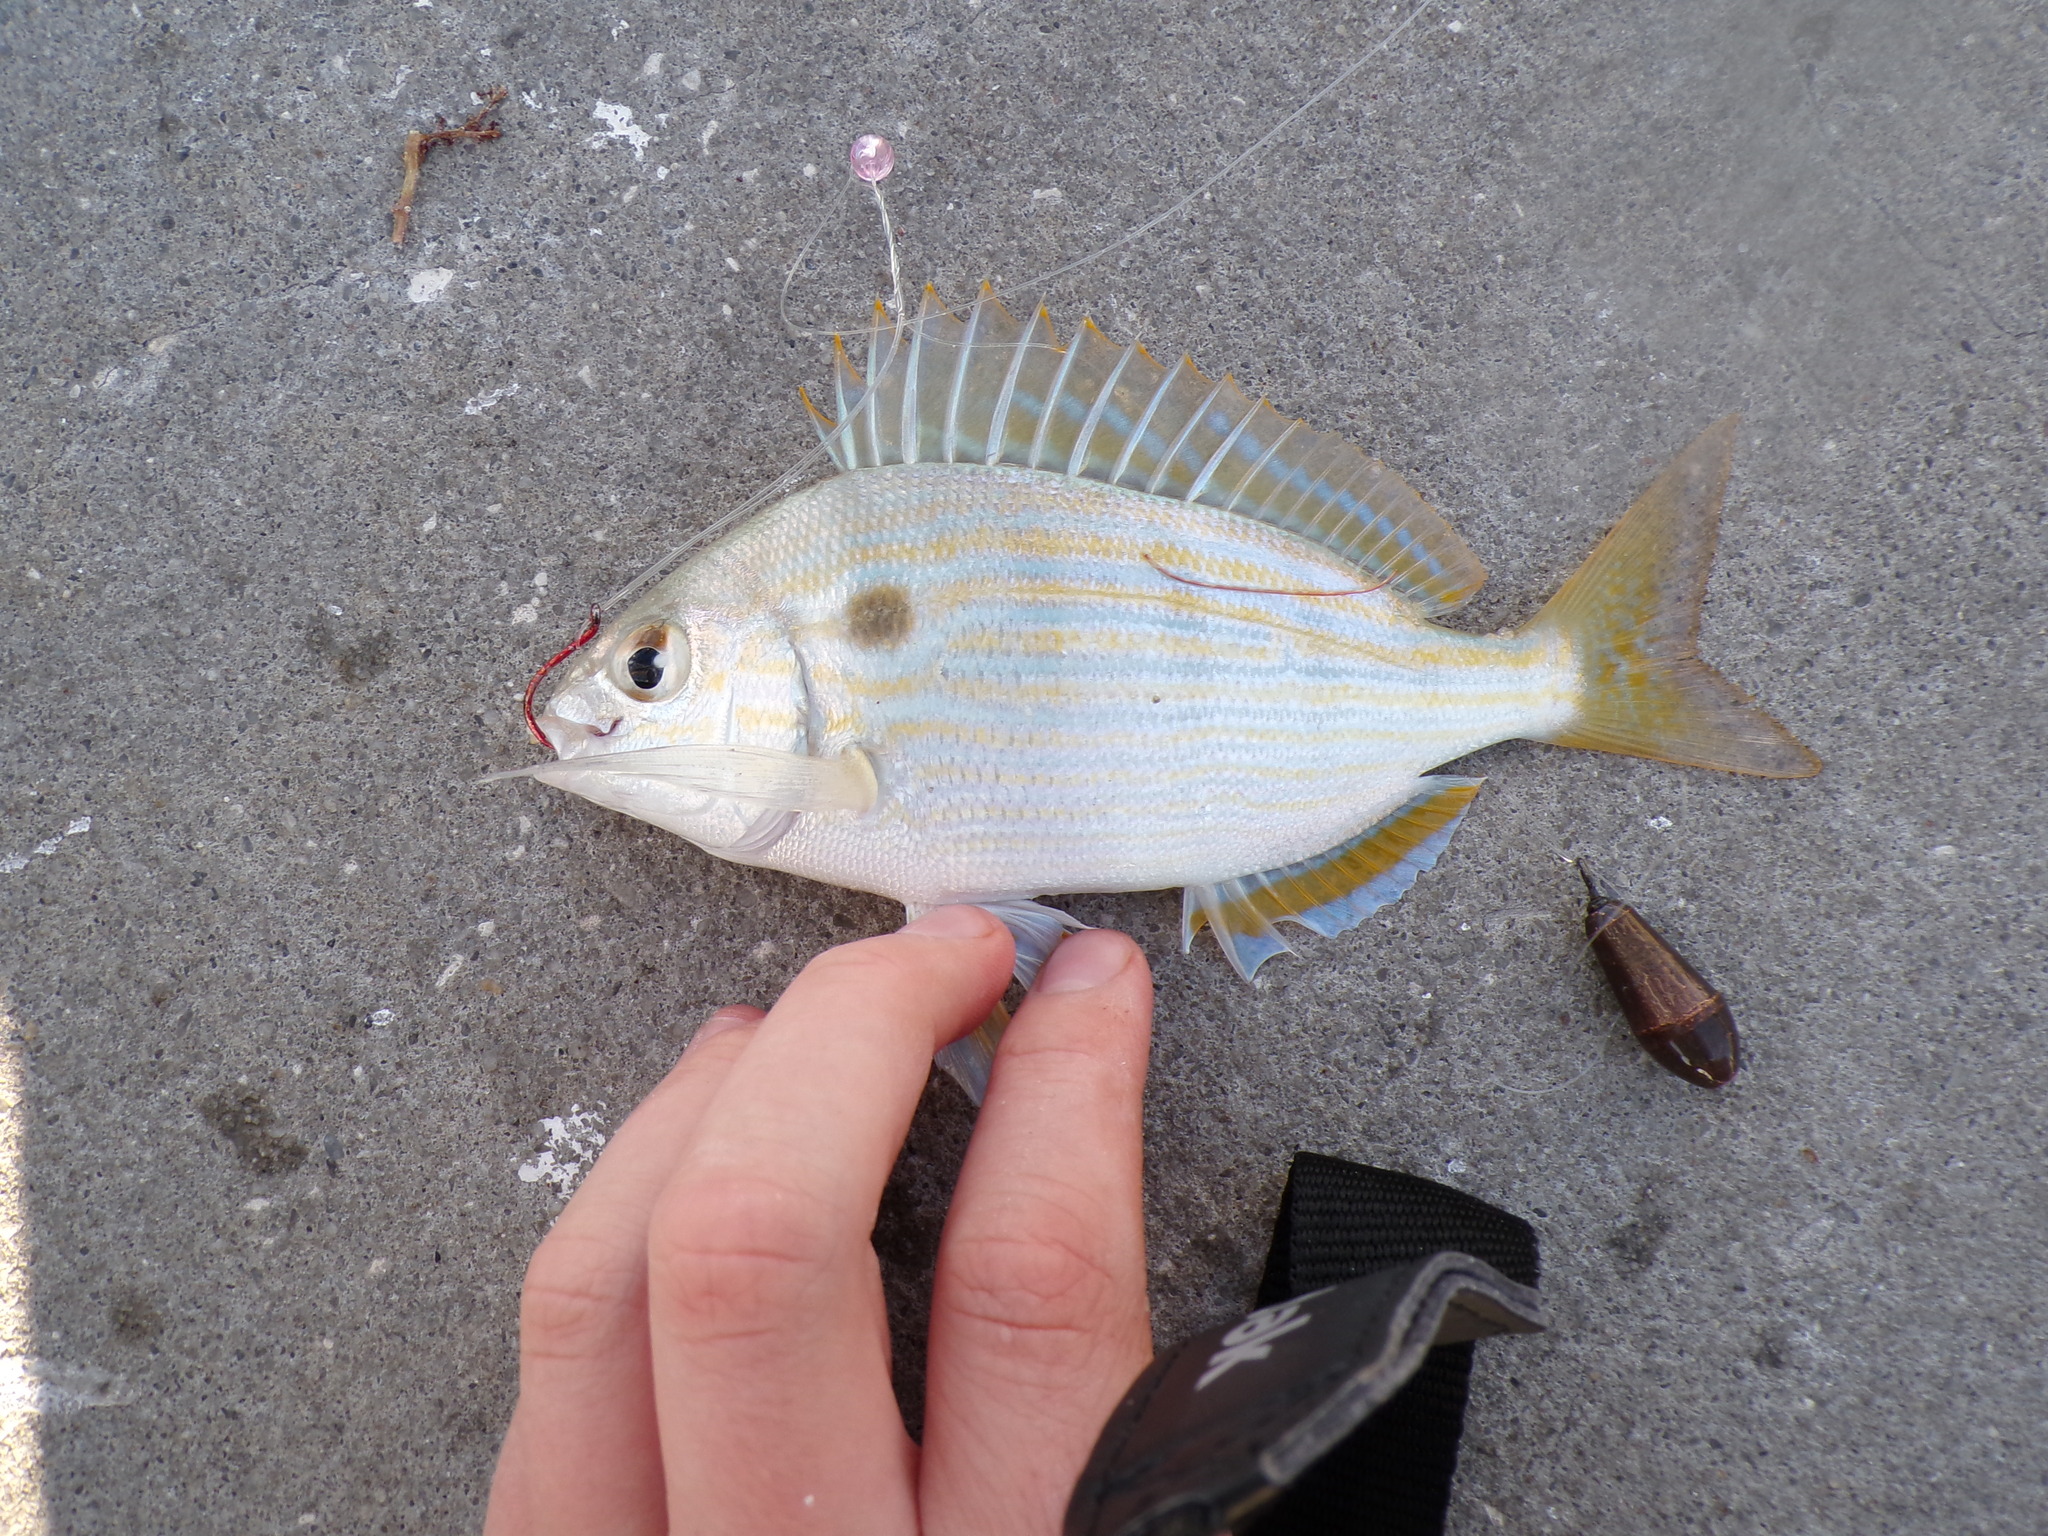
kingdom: Animalia
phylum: Chordata
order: Perciformes
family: Sparidae
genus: Lagodon
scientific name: Lagodon rhomboides
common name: Pinfish
